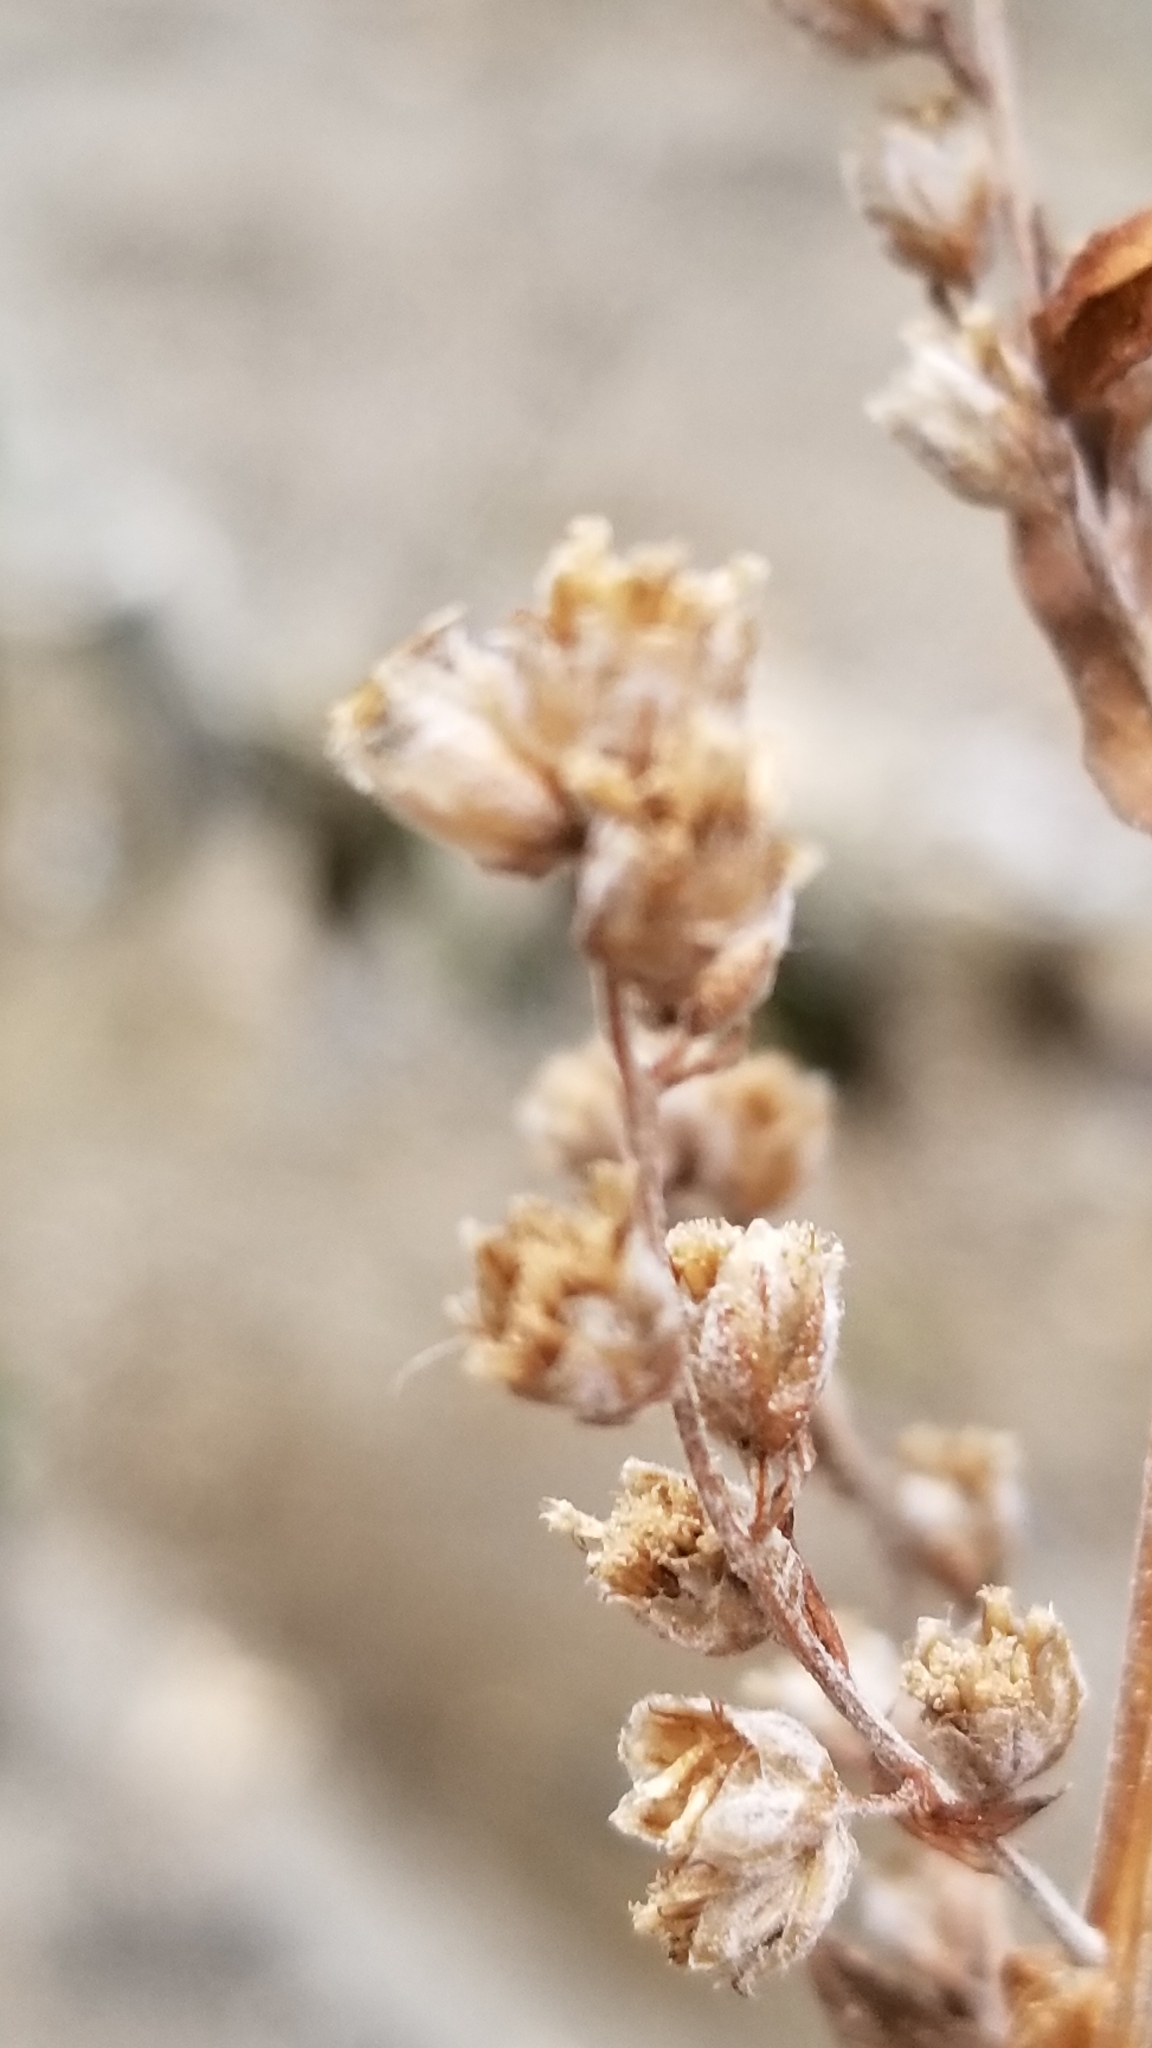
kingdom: Plantae
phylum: Tracheophyta
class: Magnoliopsida
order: Asterales
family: Asteraceae
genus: Artemisia
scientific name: Artemisia douglasiana
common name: Northwest mugwort
